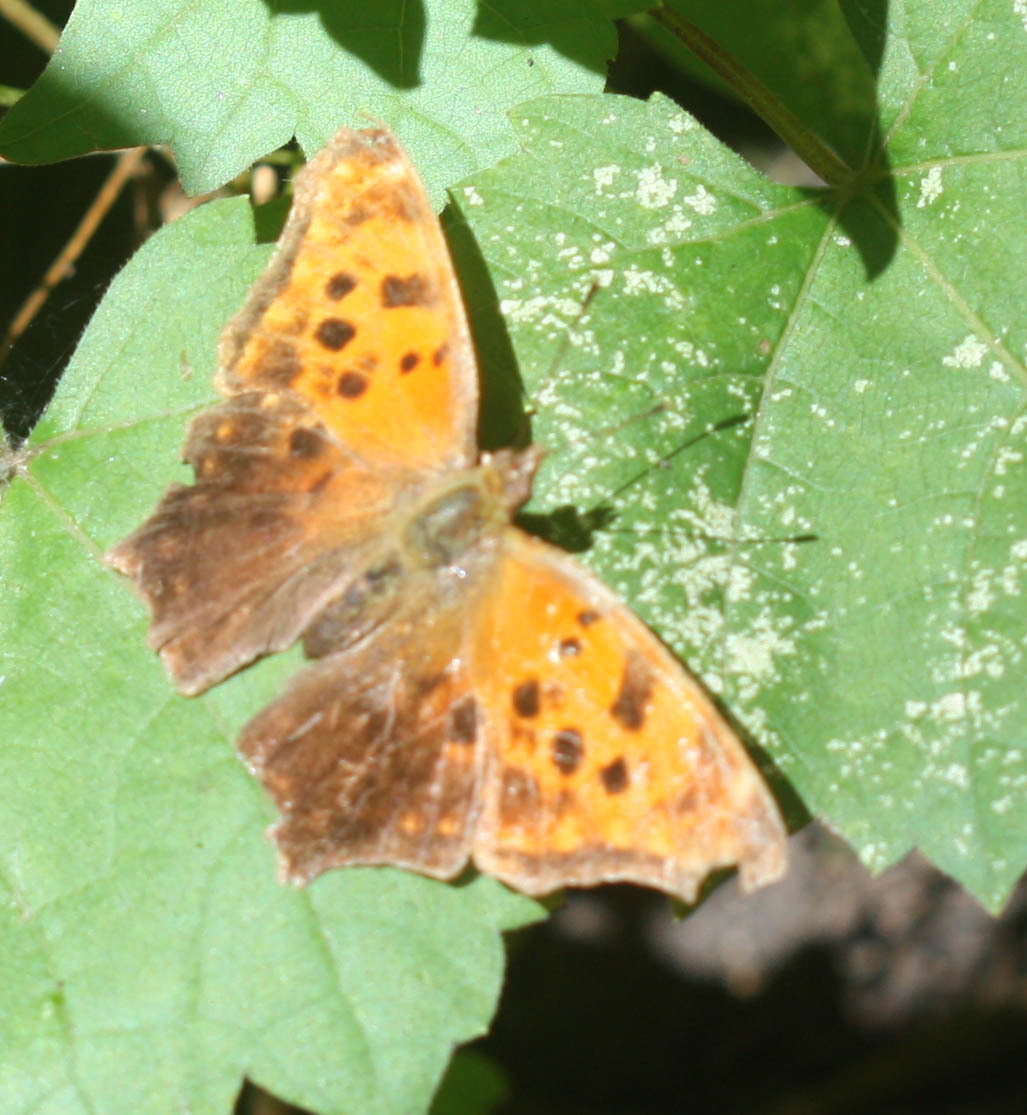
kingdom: Animalia
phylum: Arthropoda
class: Insecta
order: Lepidoptera
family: Nymphalidae
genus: Polygonia
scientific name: Polygonia comma
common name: Eastern comma
